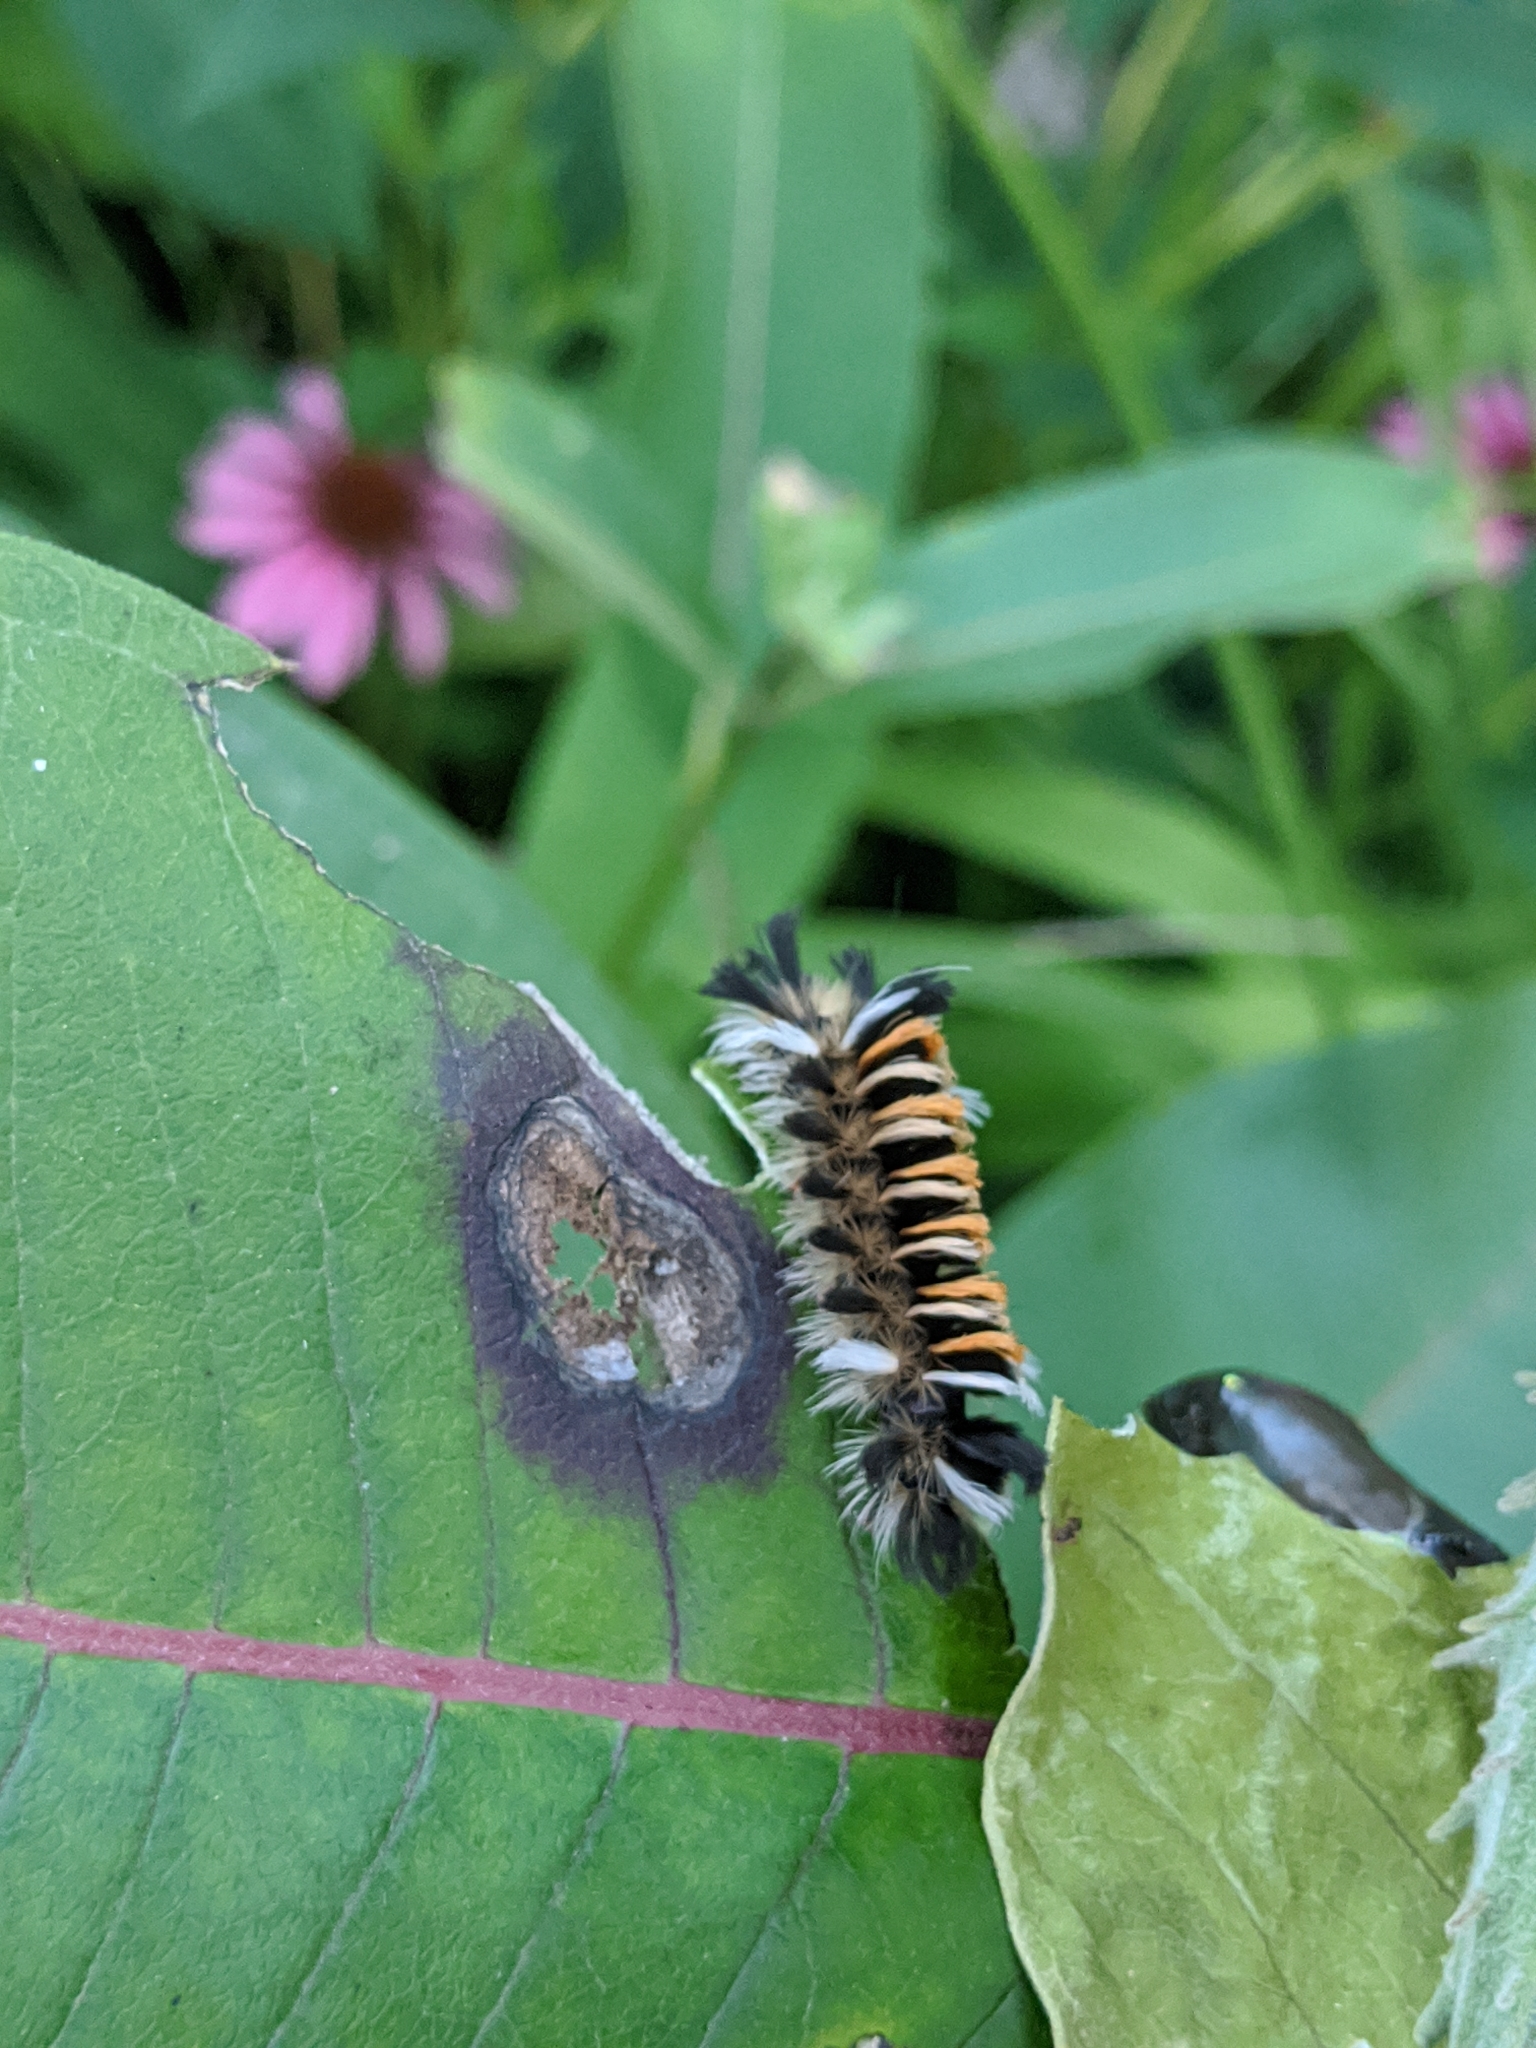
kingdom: Animalia
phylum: Arthropoda
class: Insecta
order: Lepidoptera
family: Erebidae
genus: Euchaetes
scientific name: Euchaetes egle
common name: Milkweed tussock moth
